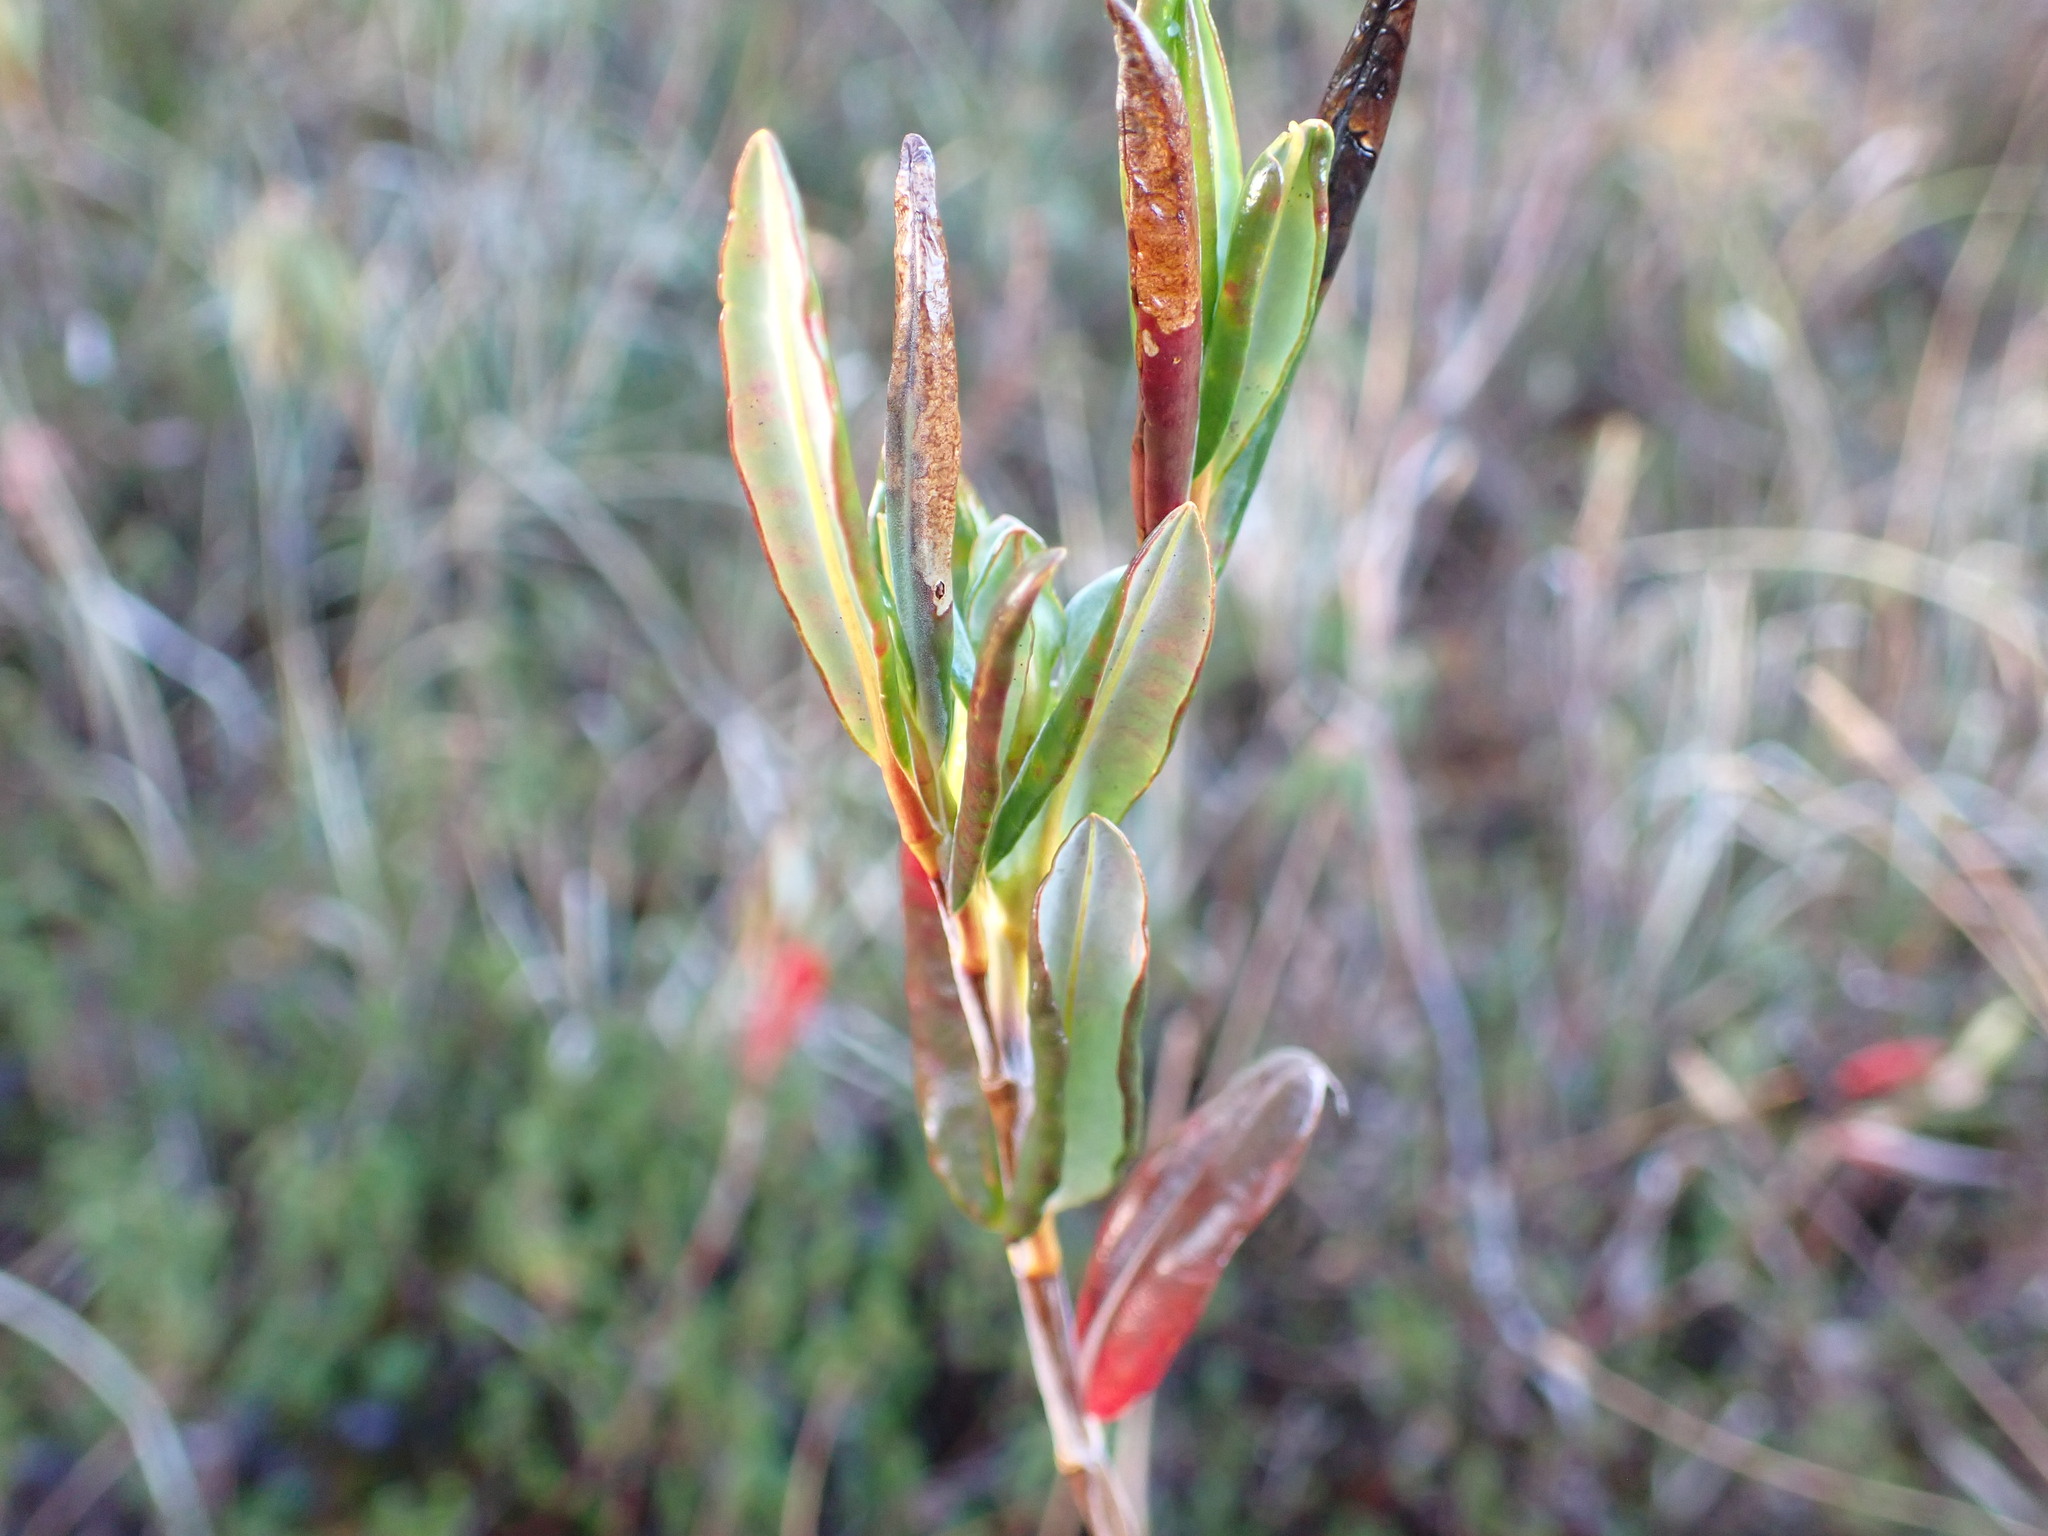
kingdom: Plantae
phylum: Tracheophyta
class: Magnoliopsida
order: Ericales
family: Ericaceae
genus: Kalmia
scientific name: Kalmia microphylla
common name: Alpine bog laurel
